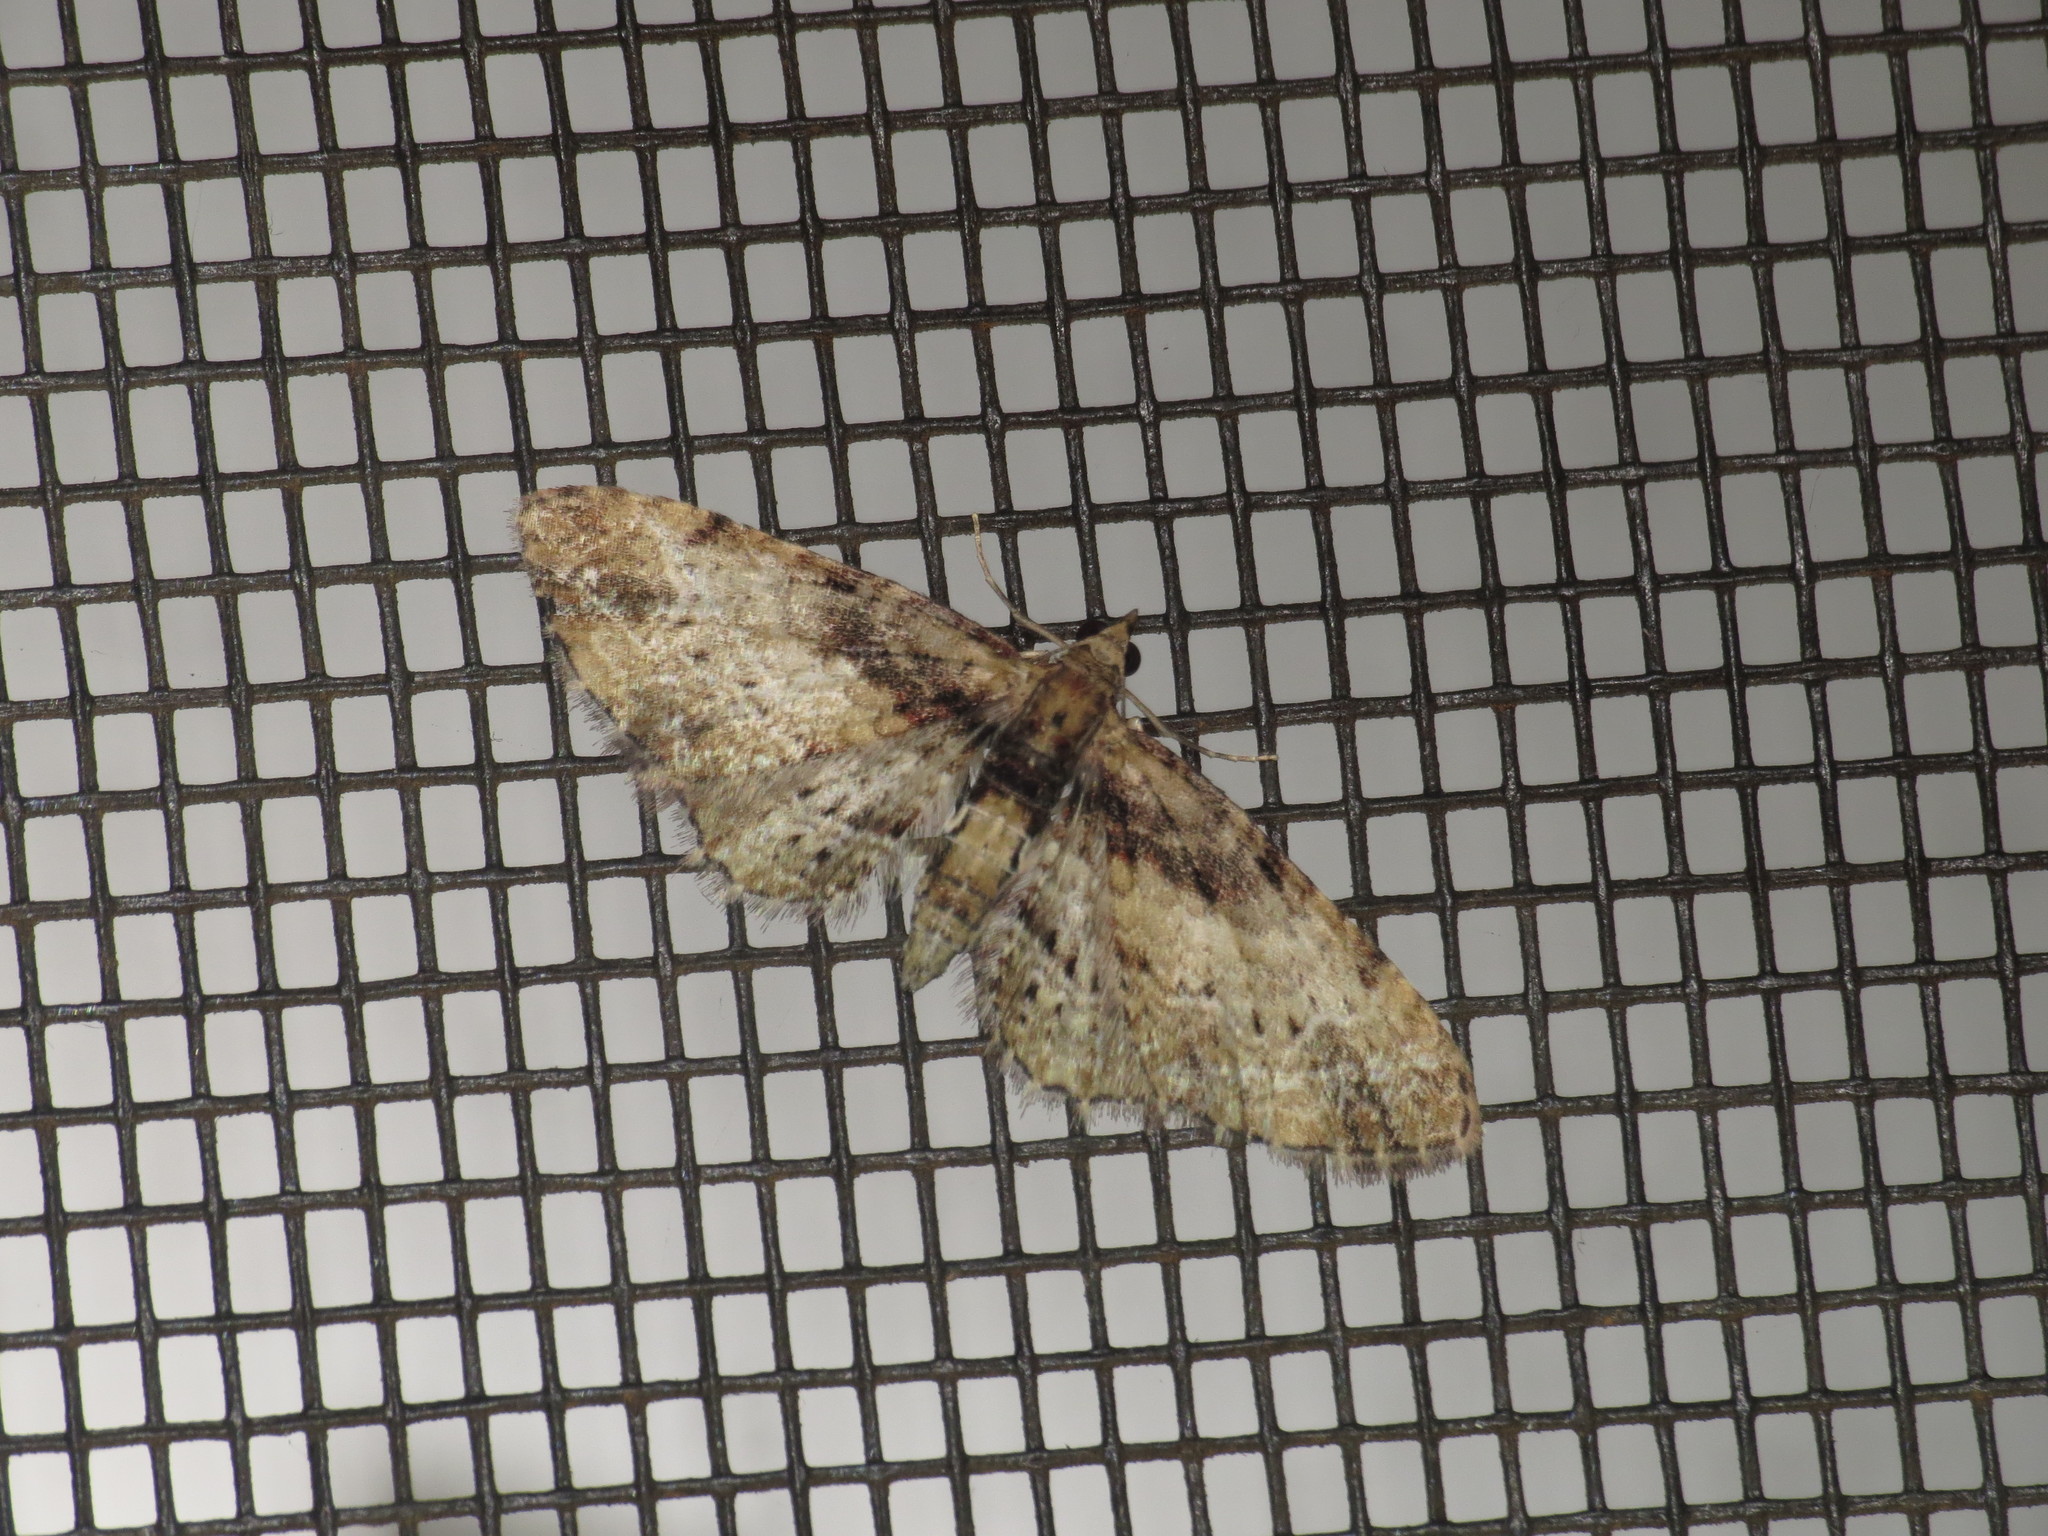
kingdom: Animalia
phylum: Arthropoda
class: Insecta
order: Lepidoptera
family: Geometridae
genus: Chloroclystis
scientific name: Chloroclystis approximata
